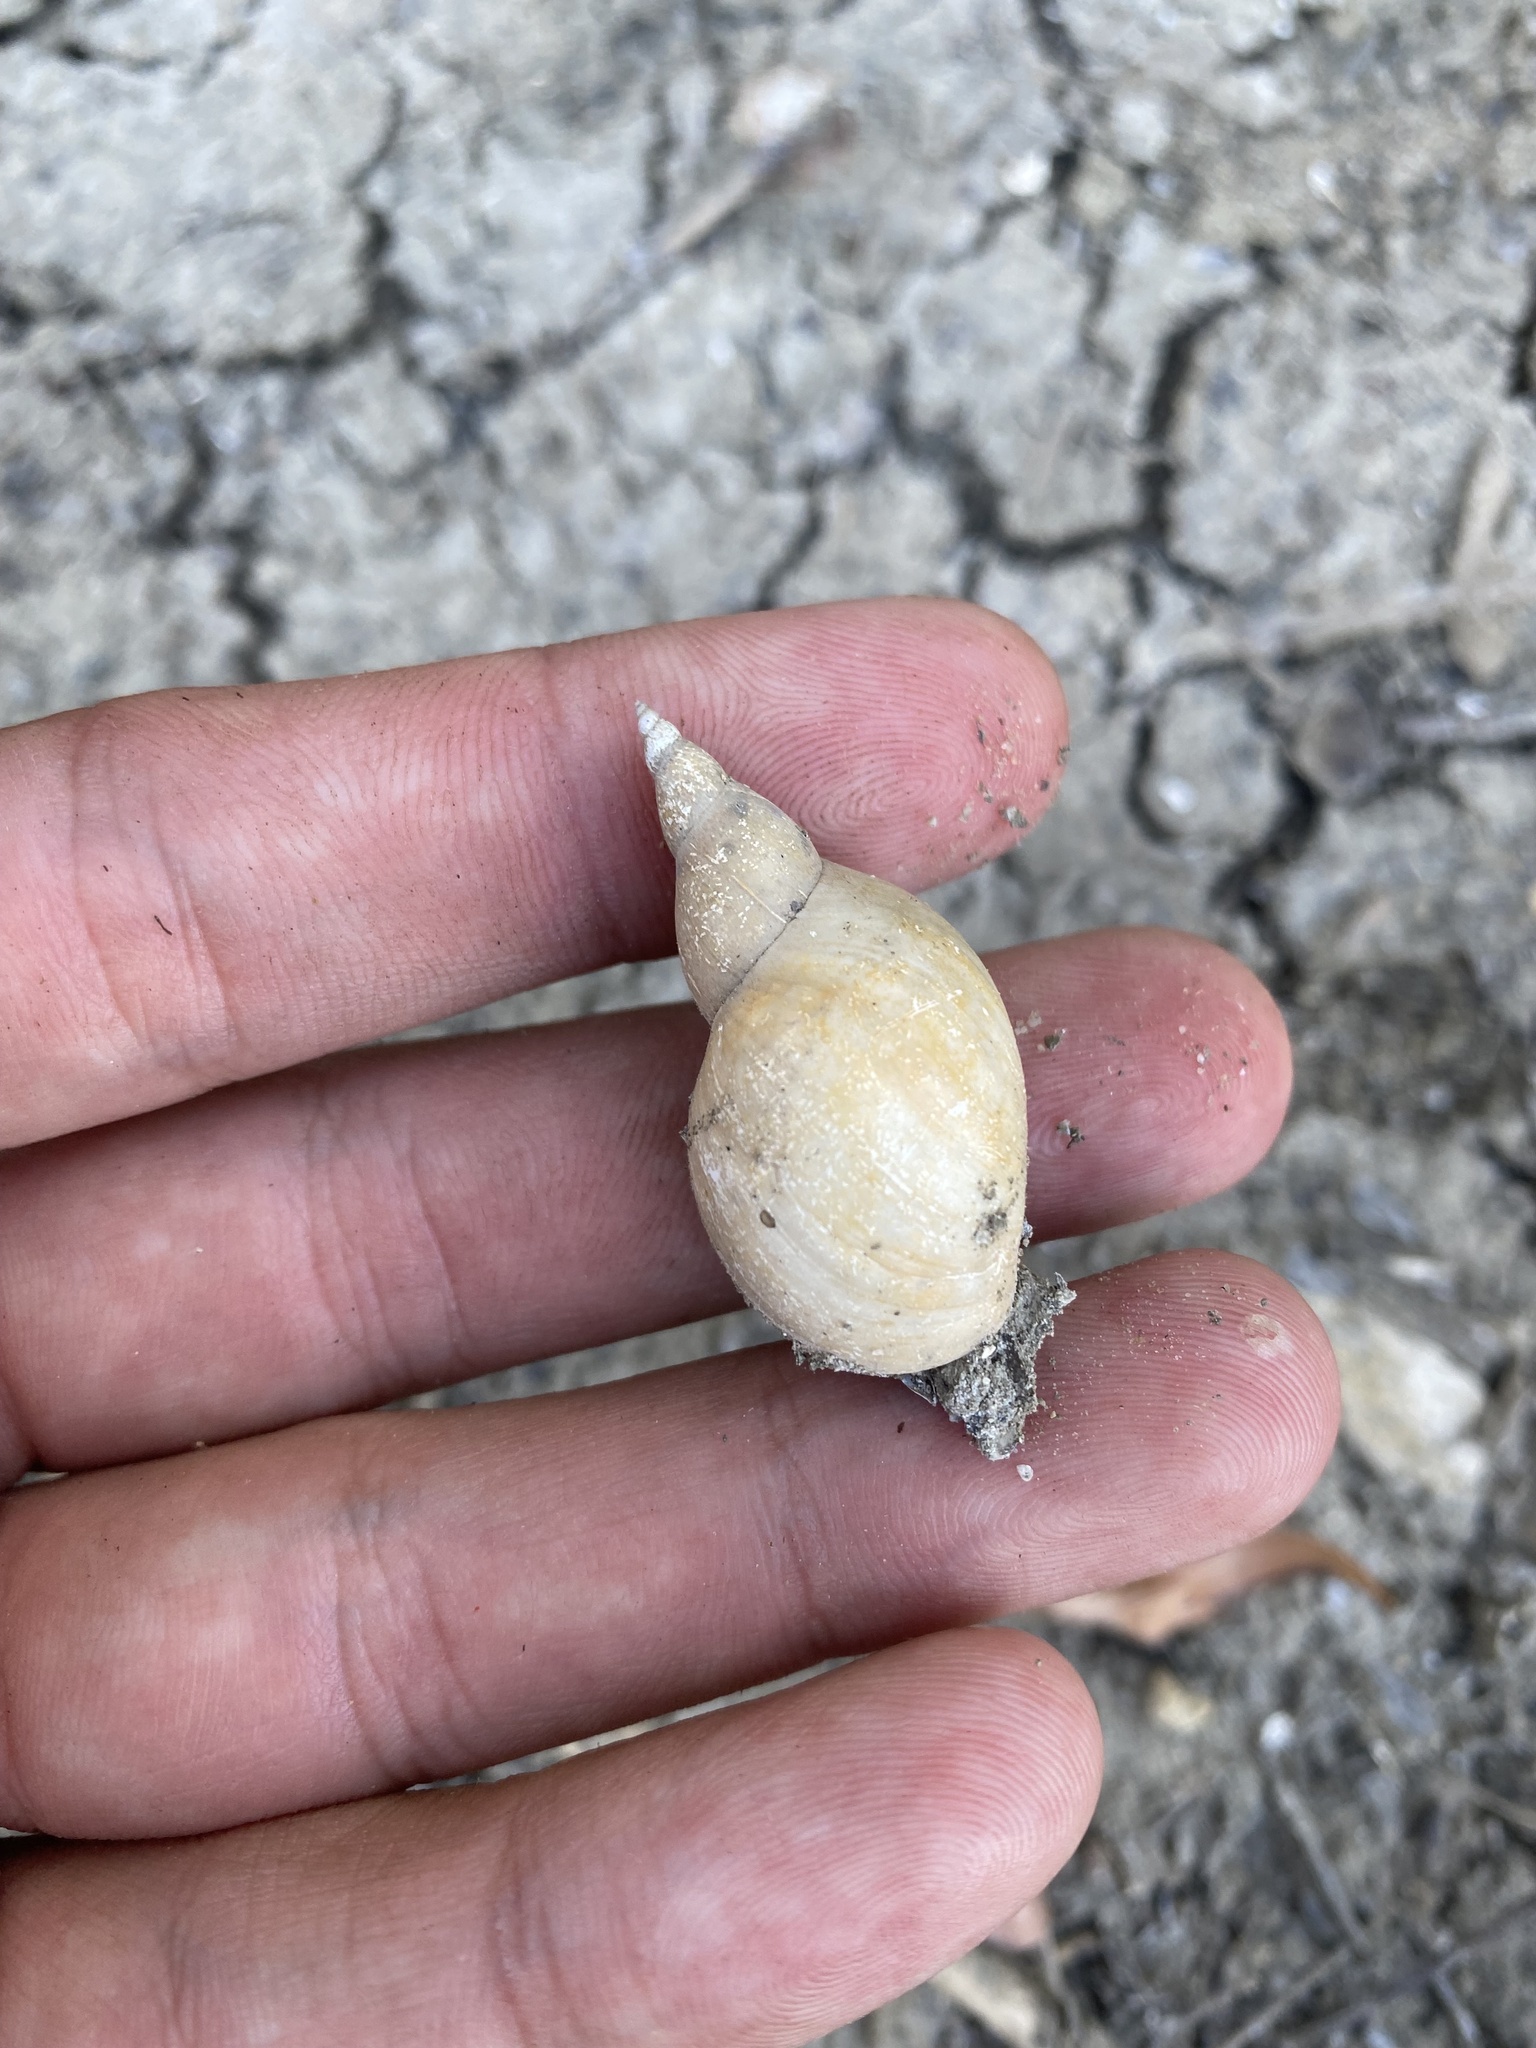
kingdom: Animalia
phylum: Mollusca
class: Gastropoda
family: Lymnaeidae
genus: Lymnaea
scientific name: Lymnaea stagnalis
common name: Great pond snail
